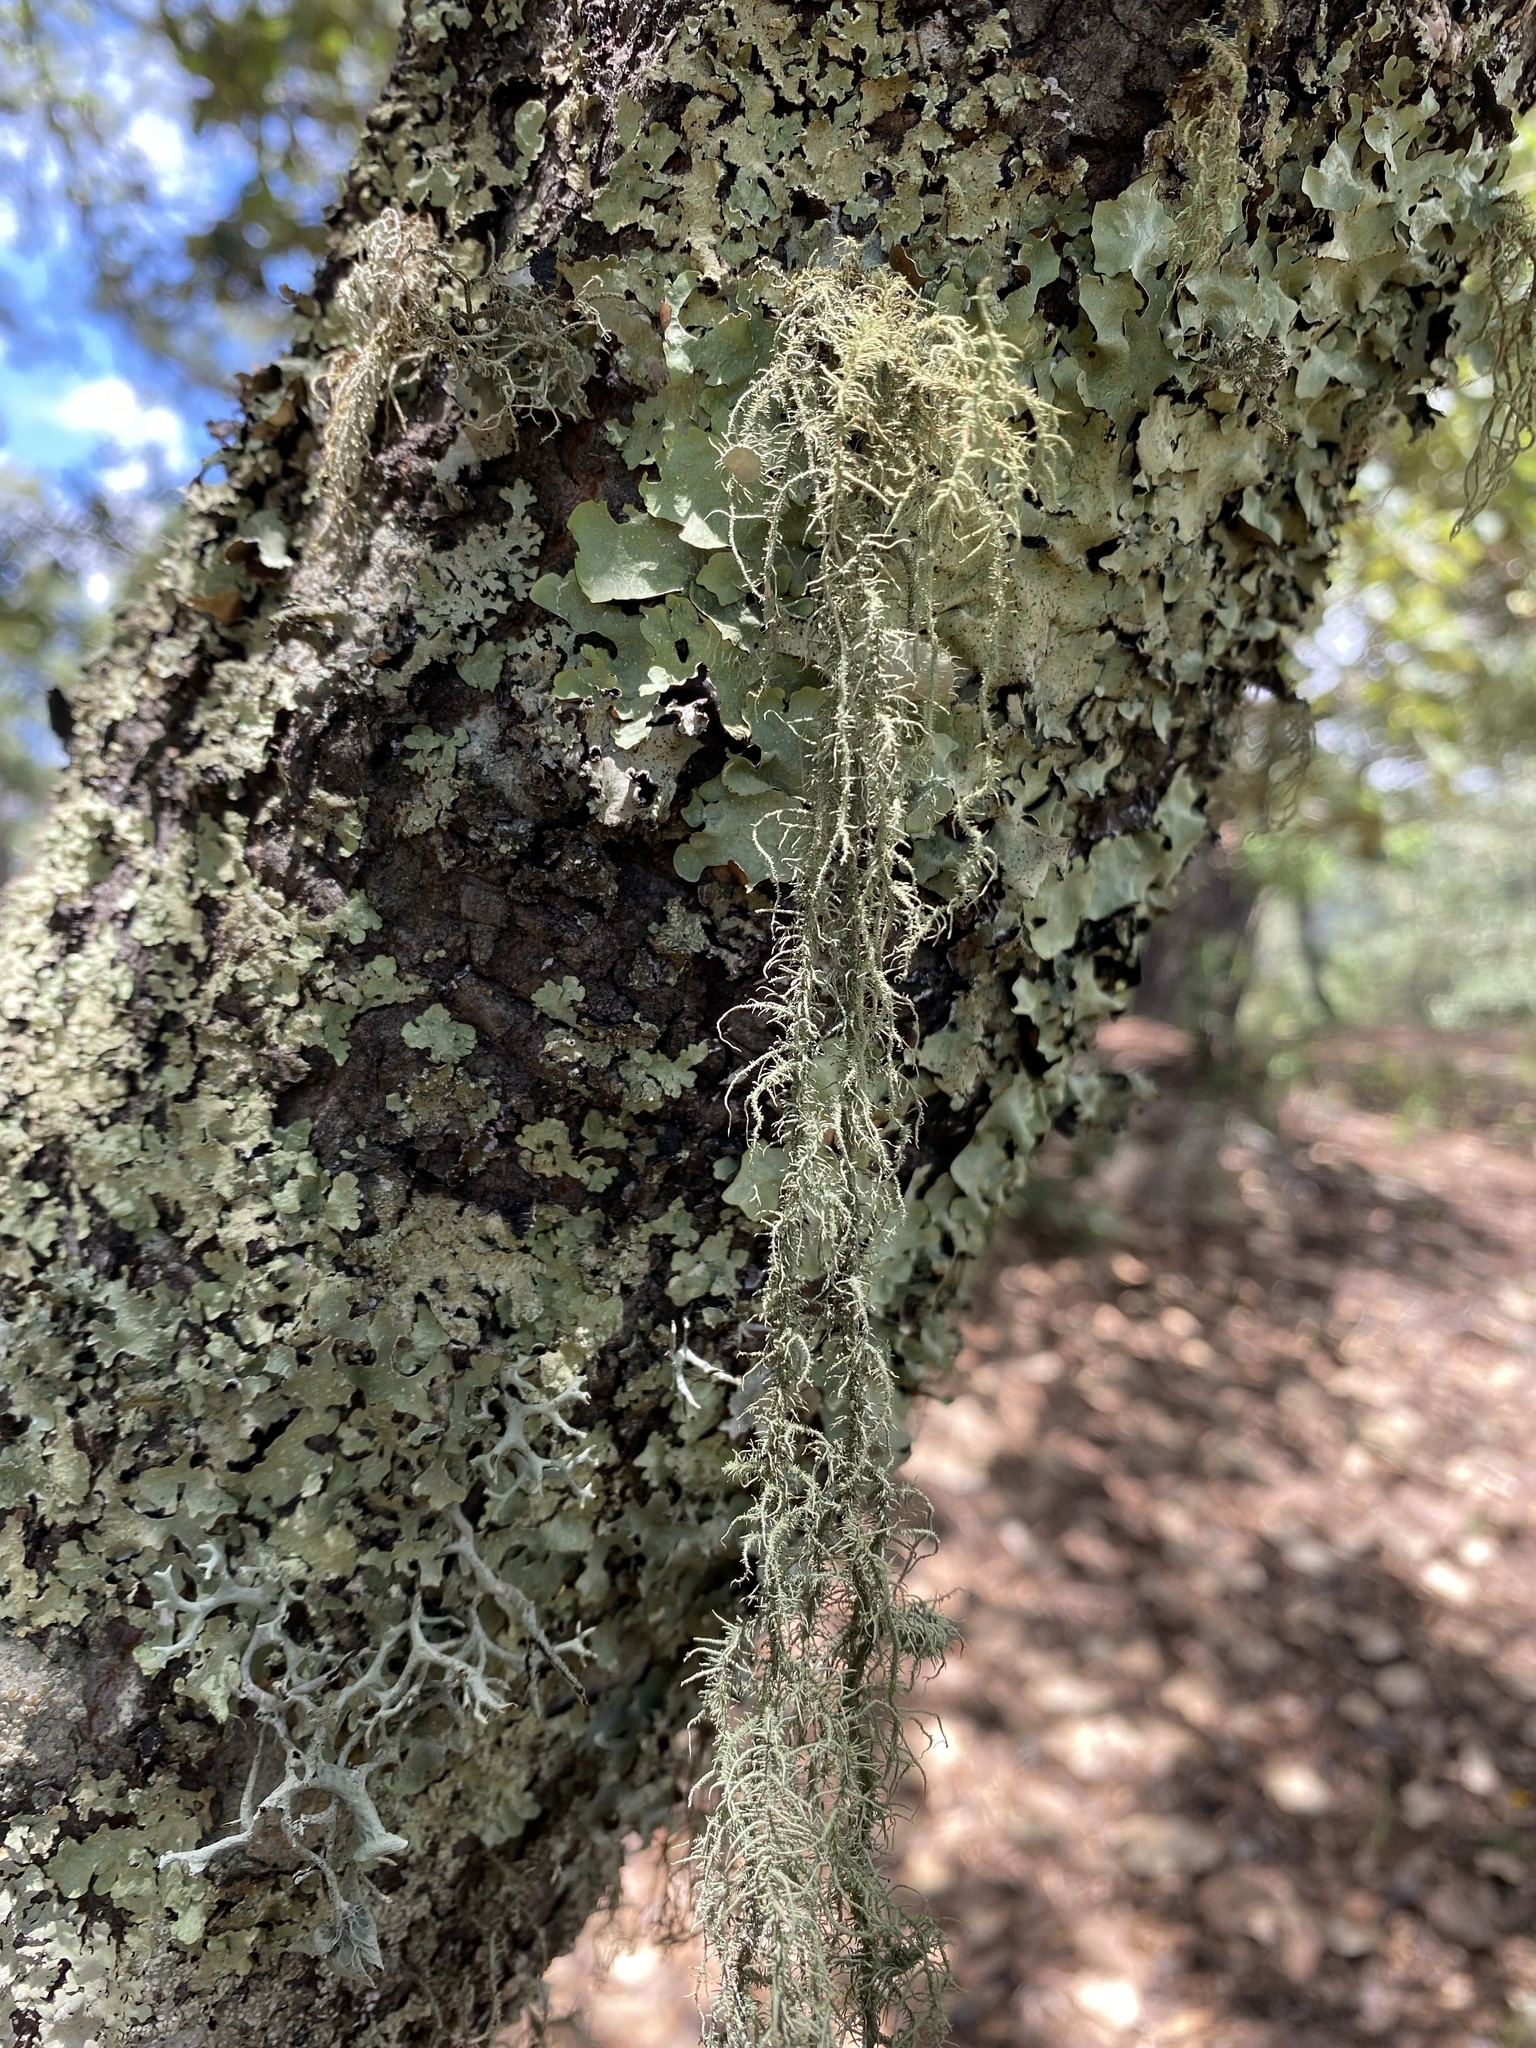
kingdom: Fungi
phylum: Ascomycota
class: Lecanoromycetes
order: Lecanorales
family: Parmeliaceae
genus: Usnea
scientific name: Usnea
